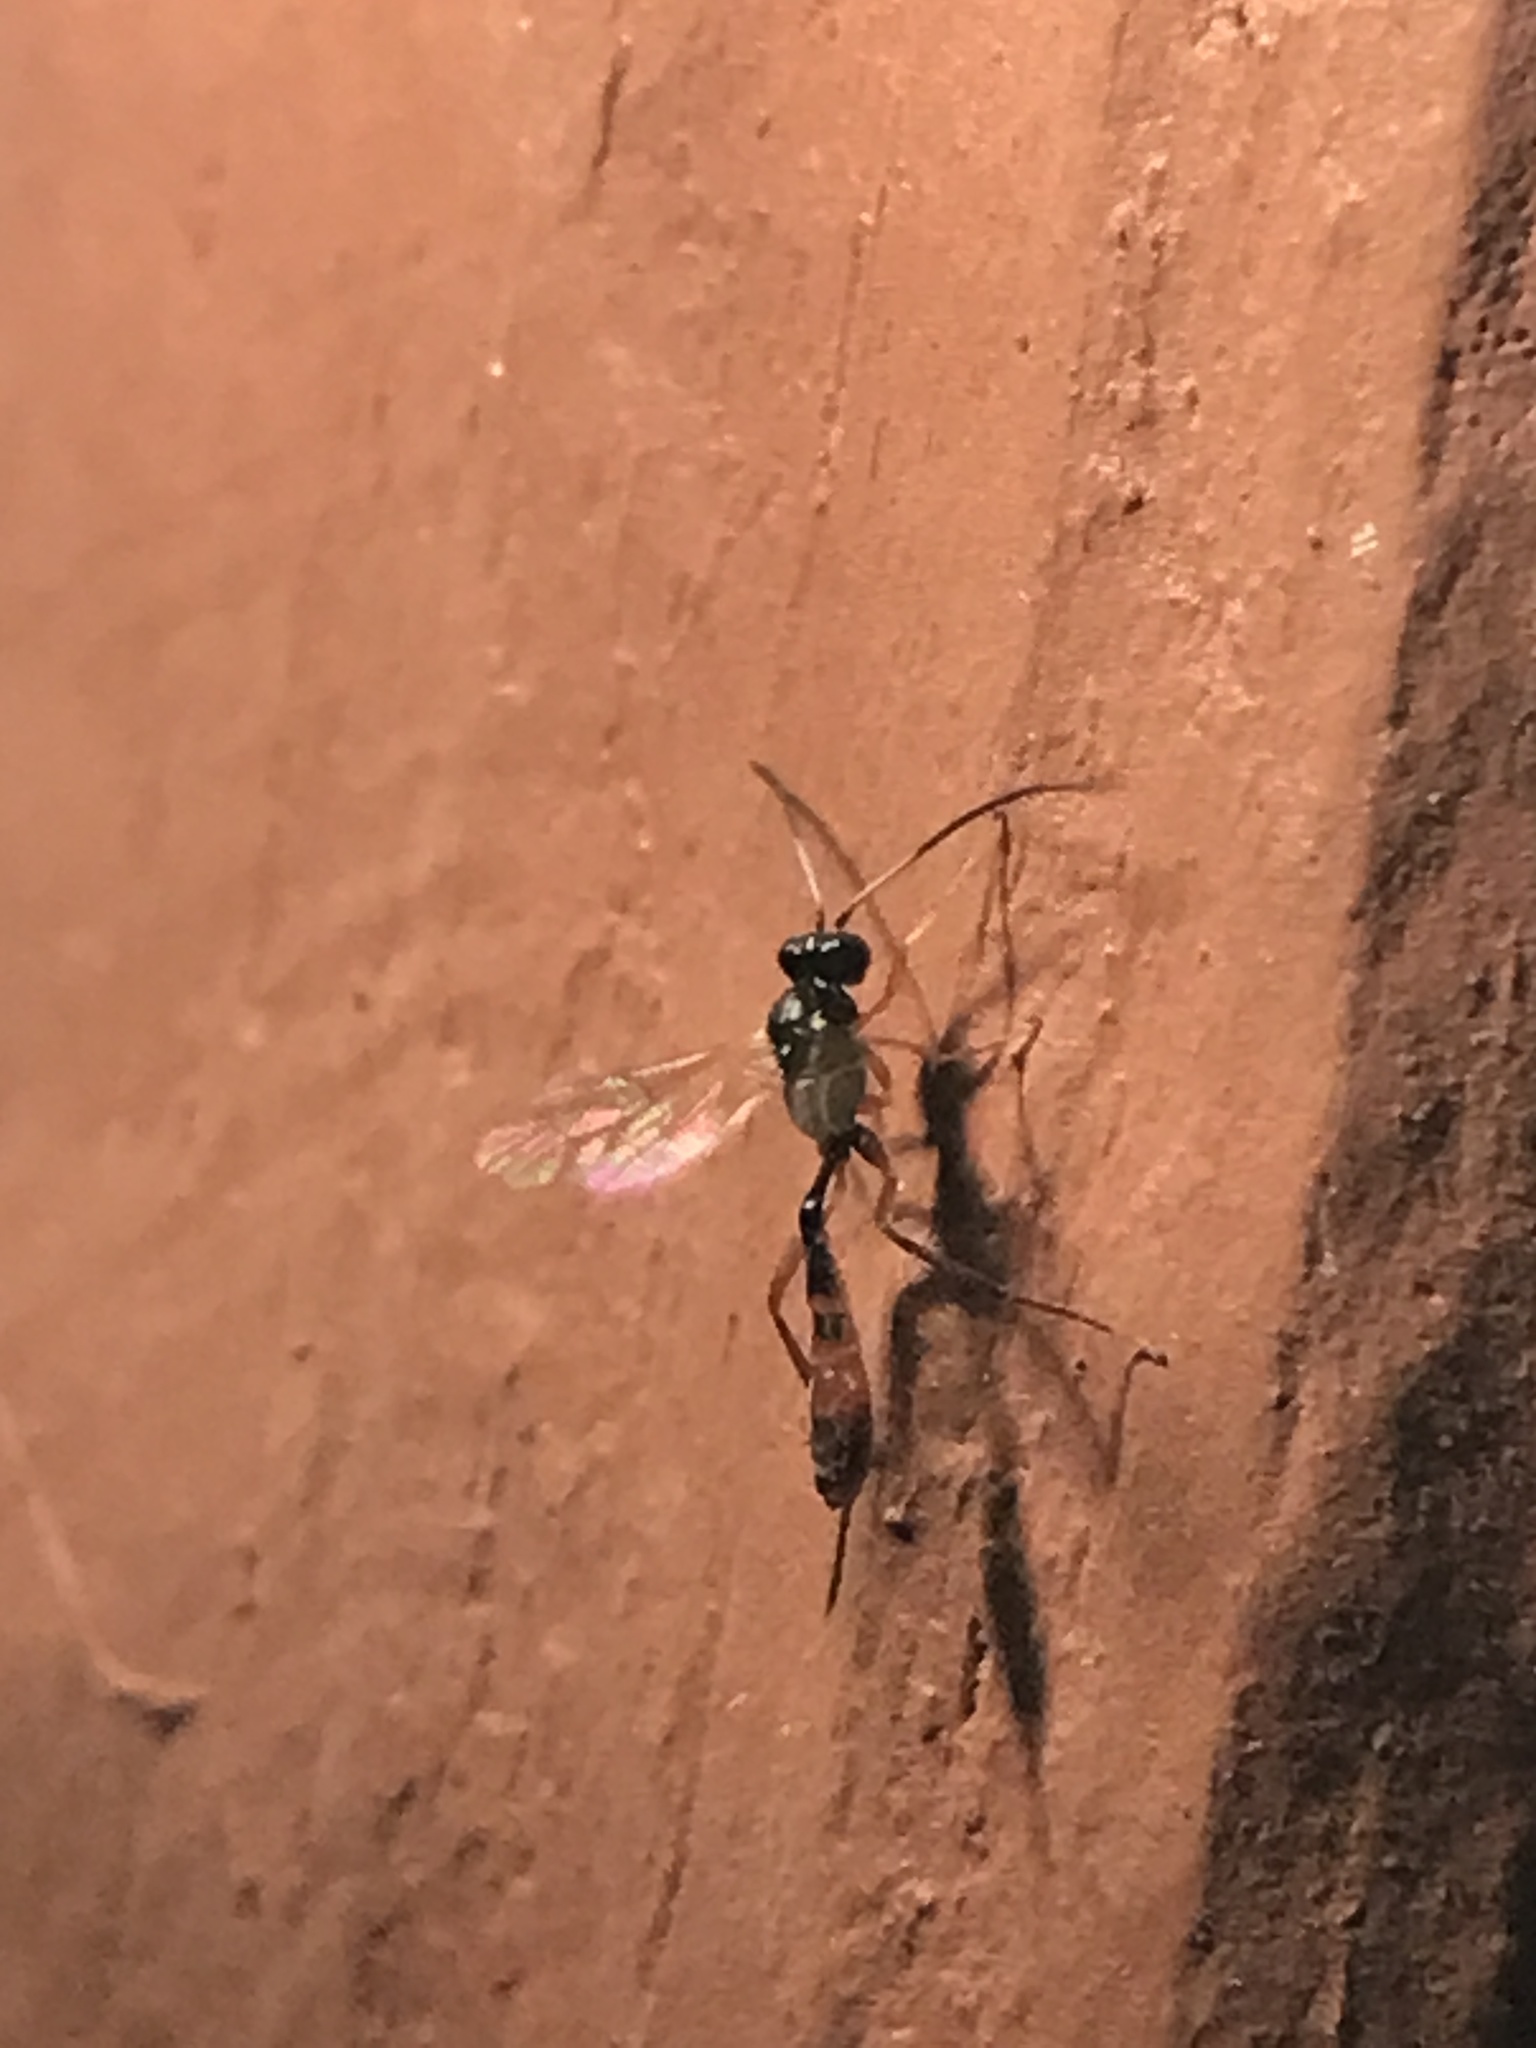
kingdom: Animalia
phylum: Arthropoda
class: Insecta
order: Hymenoptera
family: Ichneumonidae
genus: Cymodusa
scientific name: Cymodusa distincta
